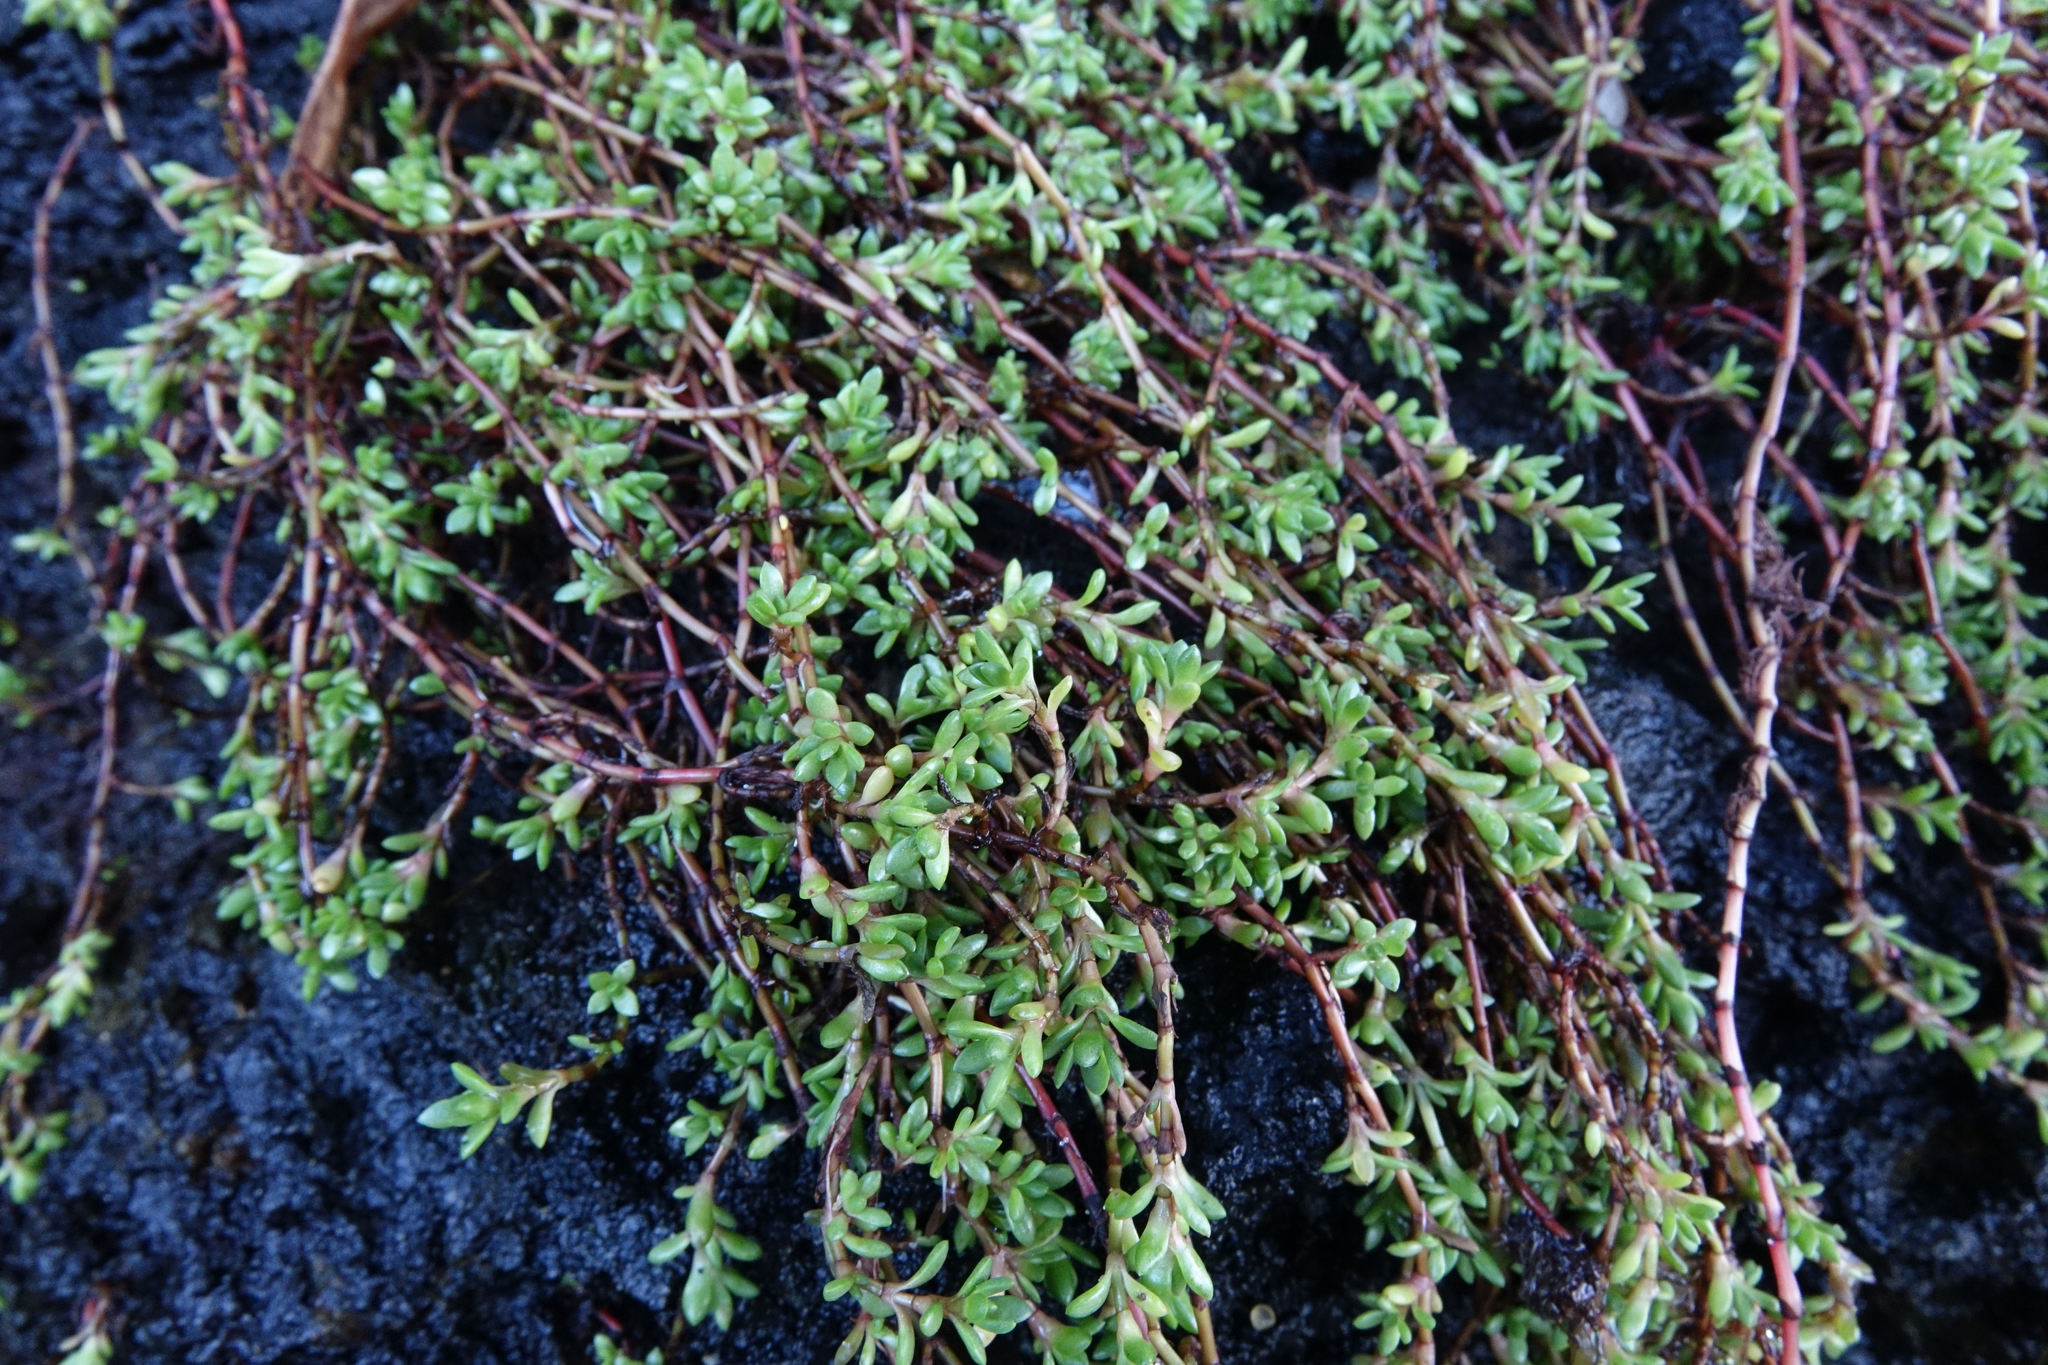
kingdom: Plantae
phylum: Tracheophyta
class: Magnoliopsida
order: Saxifragales
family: Crassulaceae
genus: Crassula
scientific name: Crassula moschata
